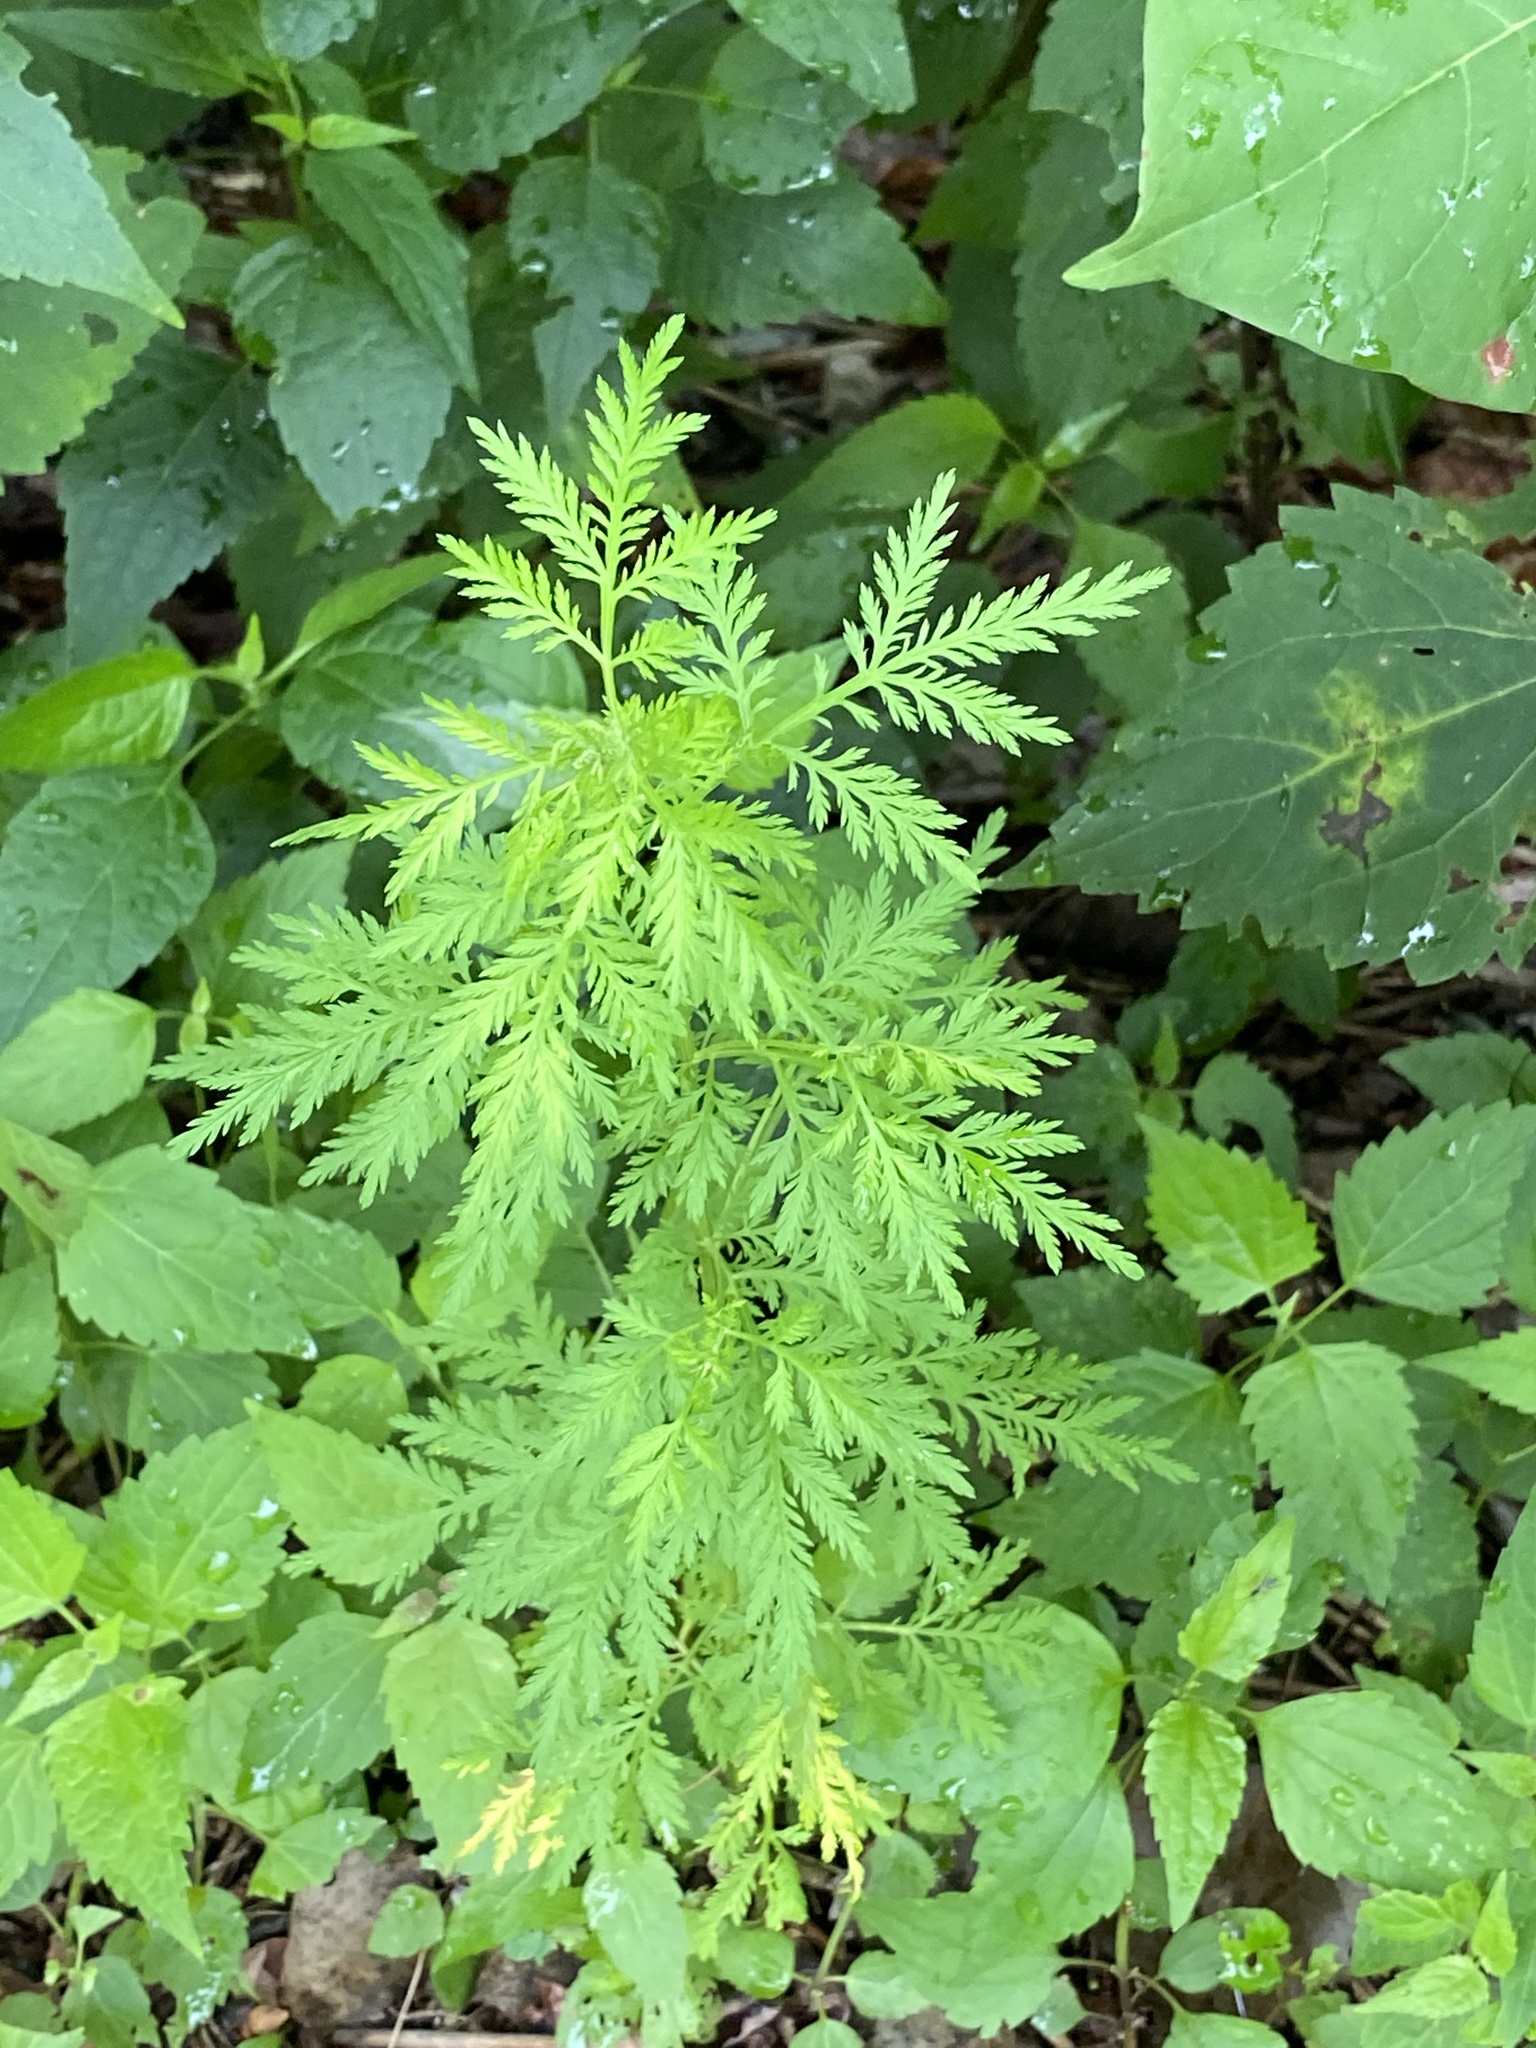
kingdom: Plantae
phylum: Tracheophyta
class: Magnoliopsida
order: Asterales
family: Asteraceae
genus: Artemisia
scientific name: Artemisia annua
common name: Sweet sagewort
